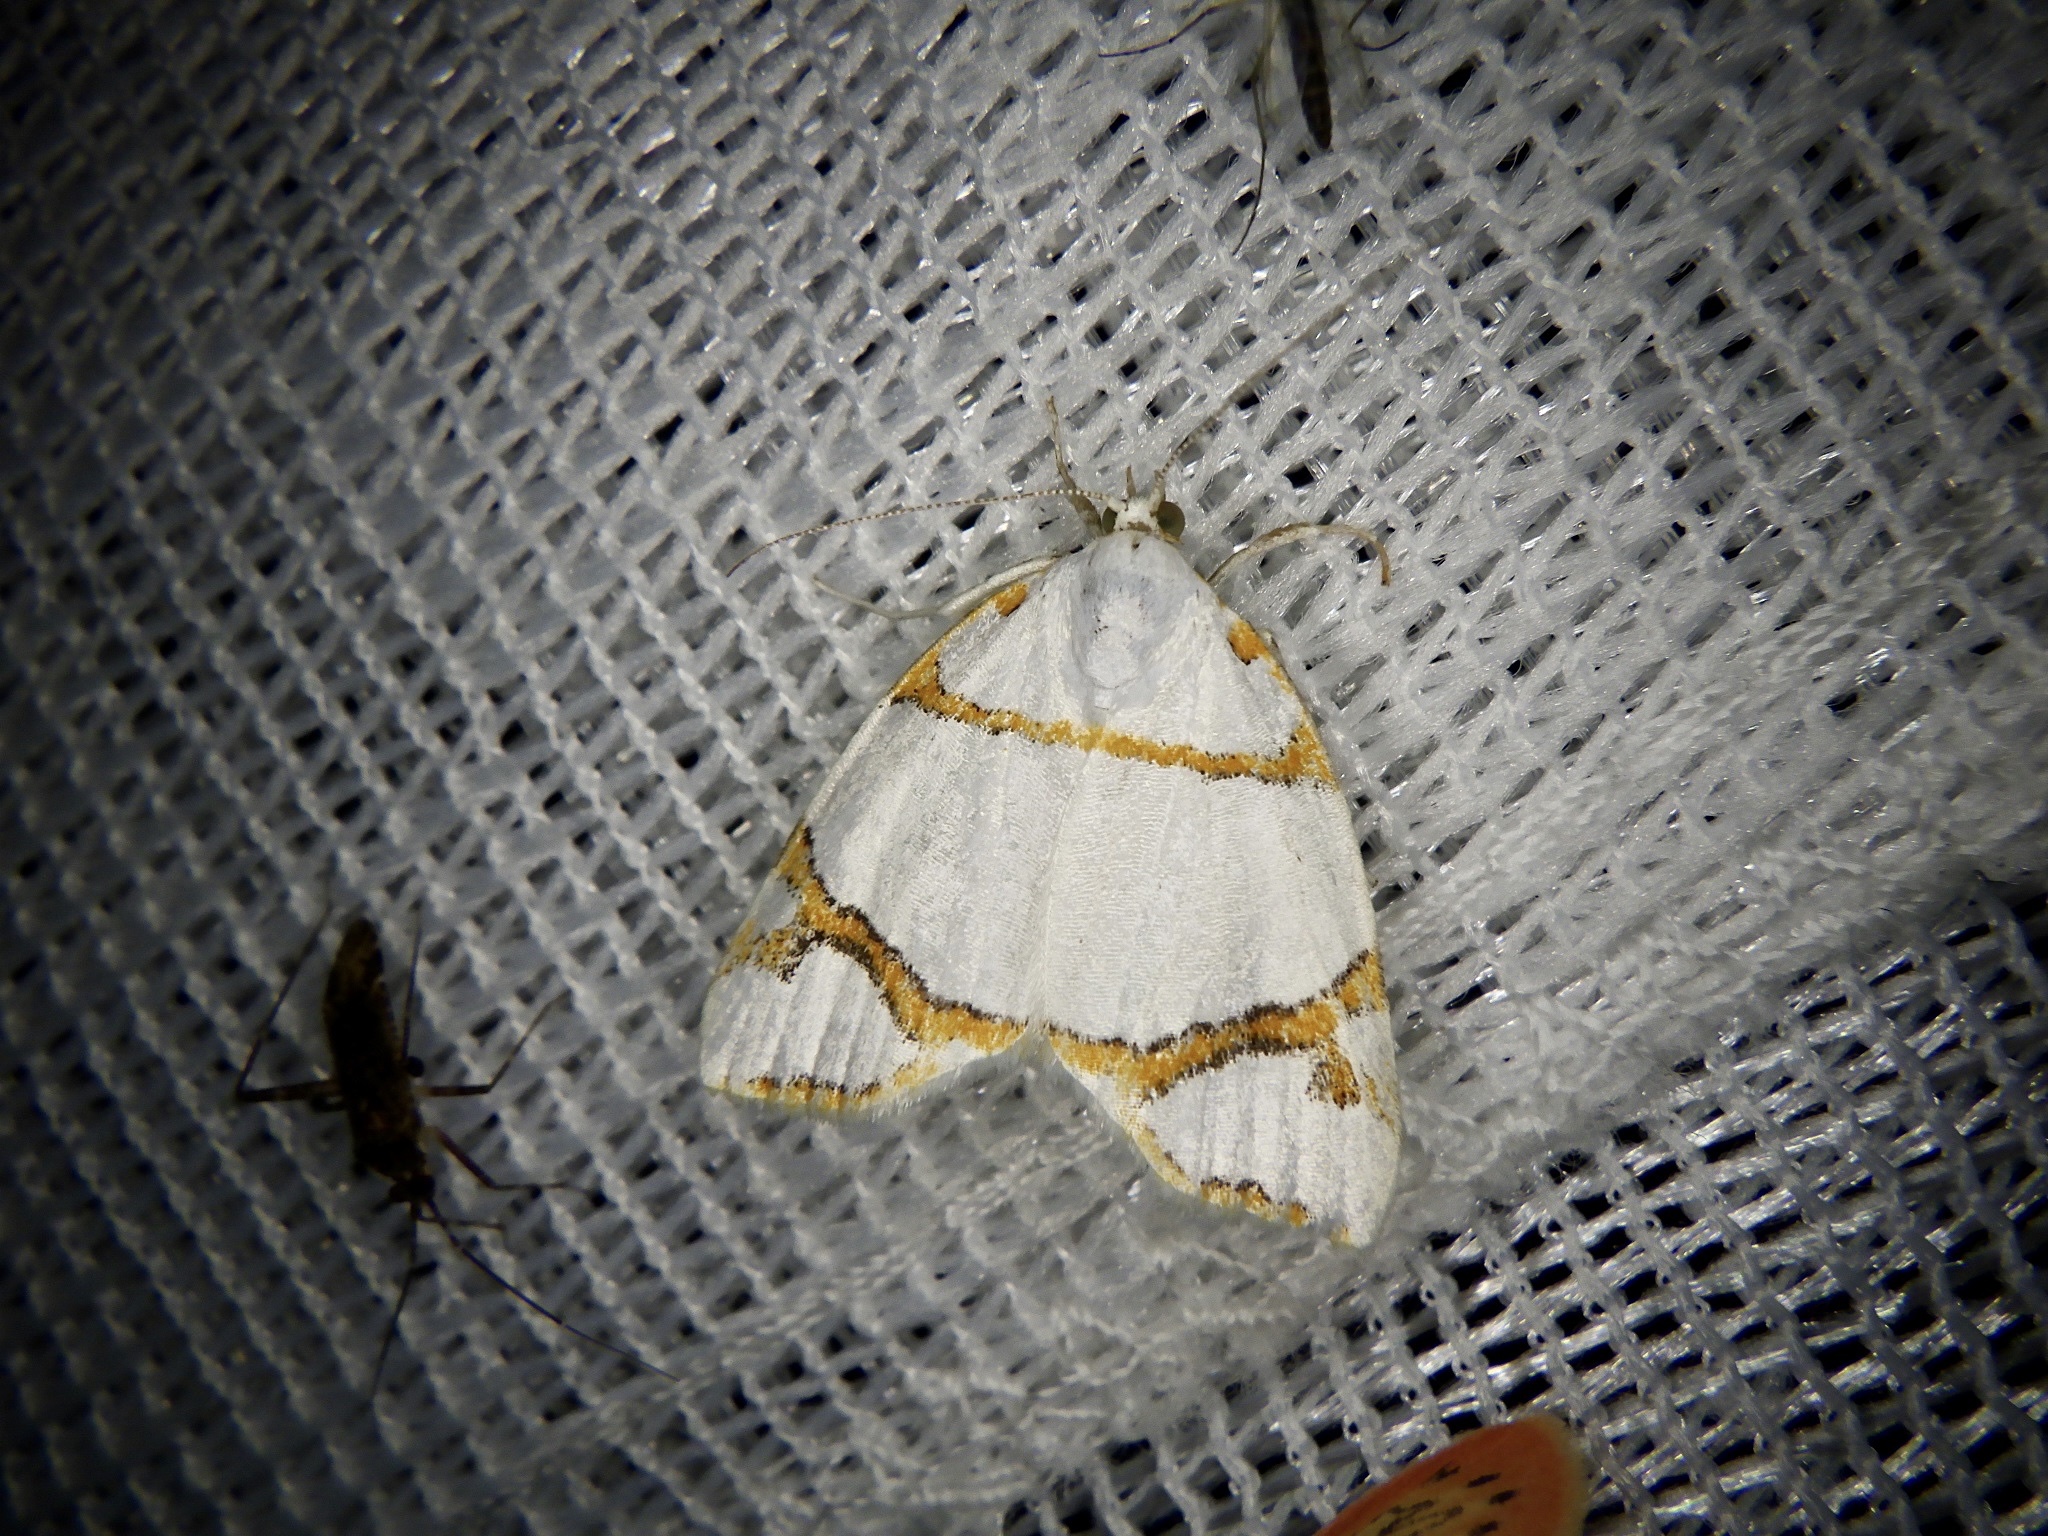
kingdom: Animalia
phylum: Arthropoda
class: Insecta
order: Lepidoptera
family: Nolidae
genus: Ariolica
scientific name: Ariolica argentea
